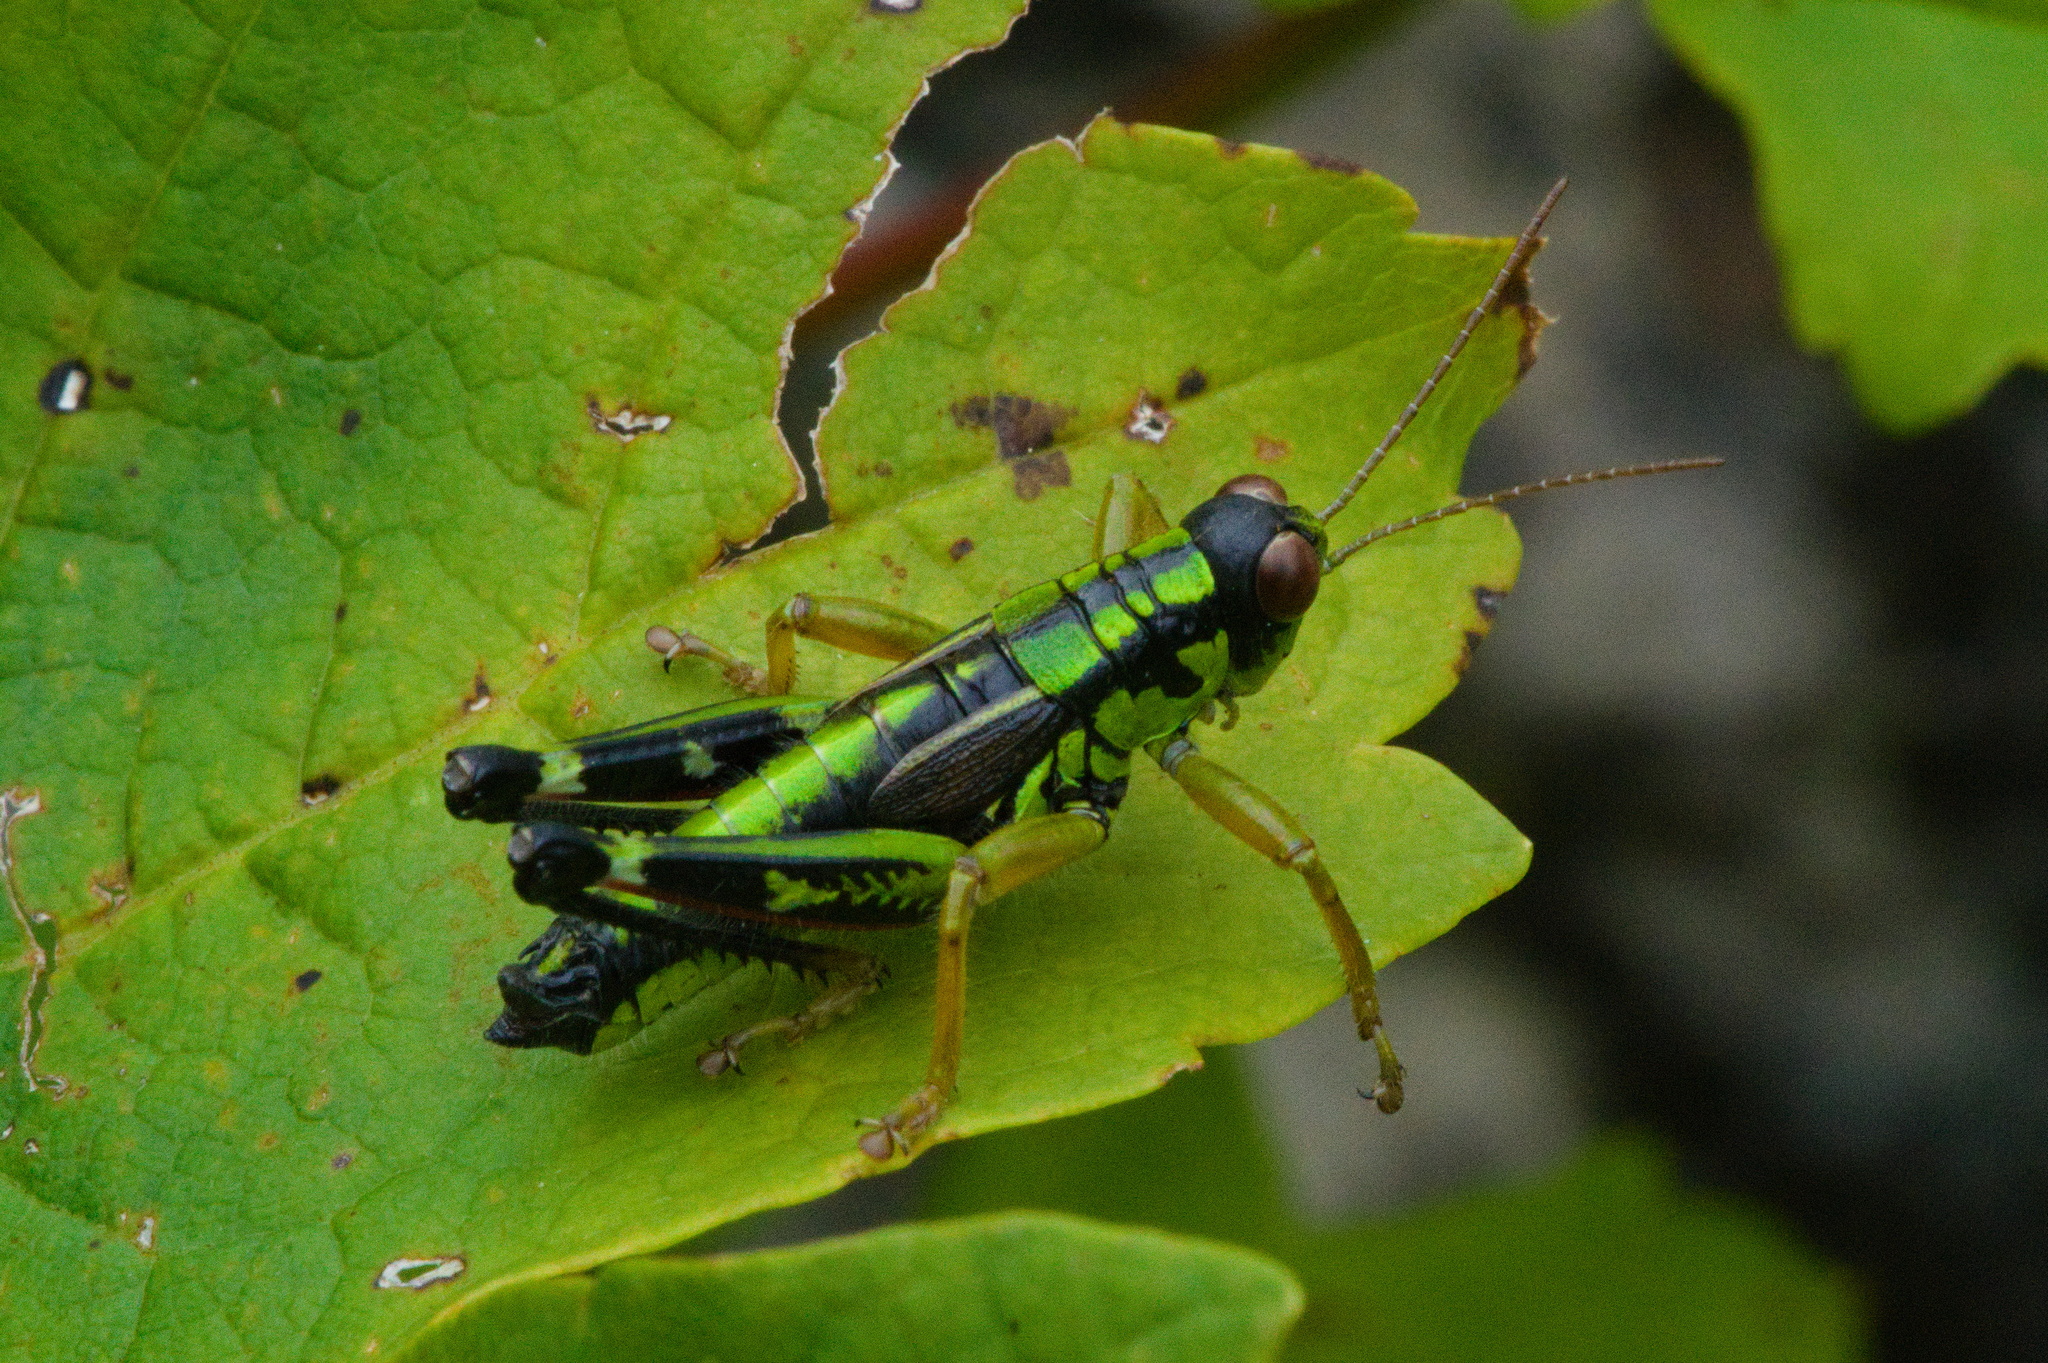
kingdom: Animalia
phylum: Arthropoda
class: Insecta
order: Orthoptera
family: Acrididae
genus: Miramella
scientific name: Miramella alpina
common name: Green mountain grasshopper
